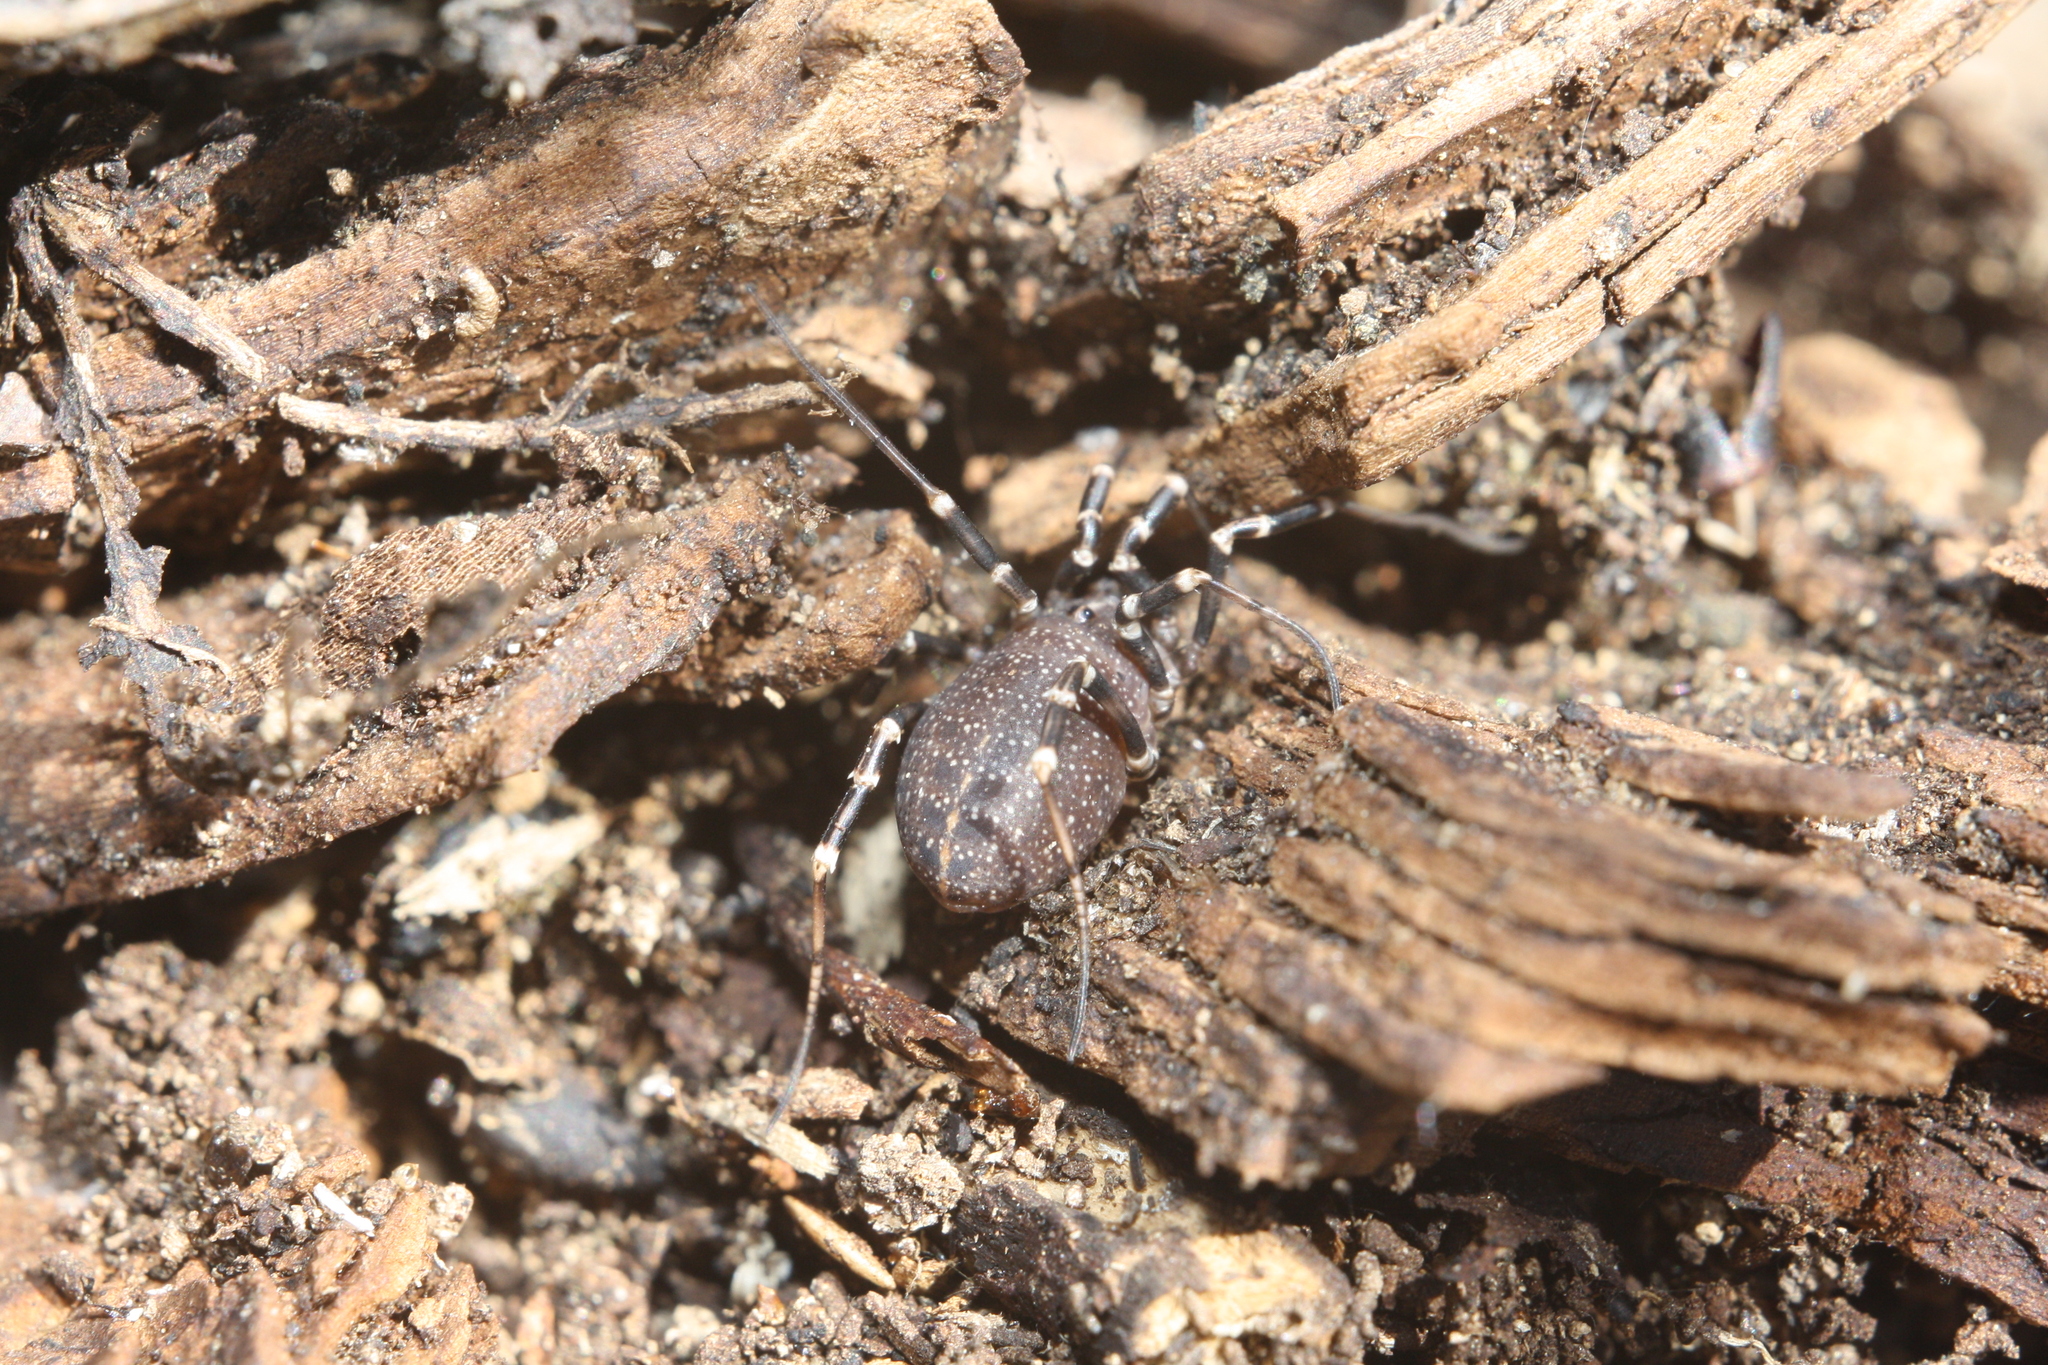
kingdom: Animalia
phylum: Arthropoda
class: Arachnida
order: Opiliones
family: Phalangiidae
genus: Egaenus
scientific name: Egaenus convexus
